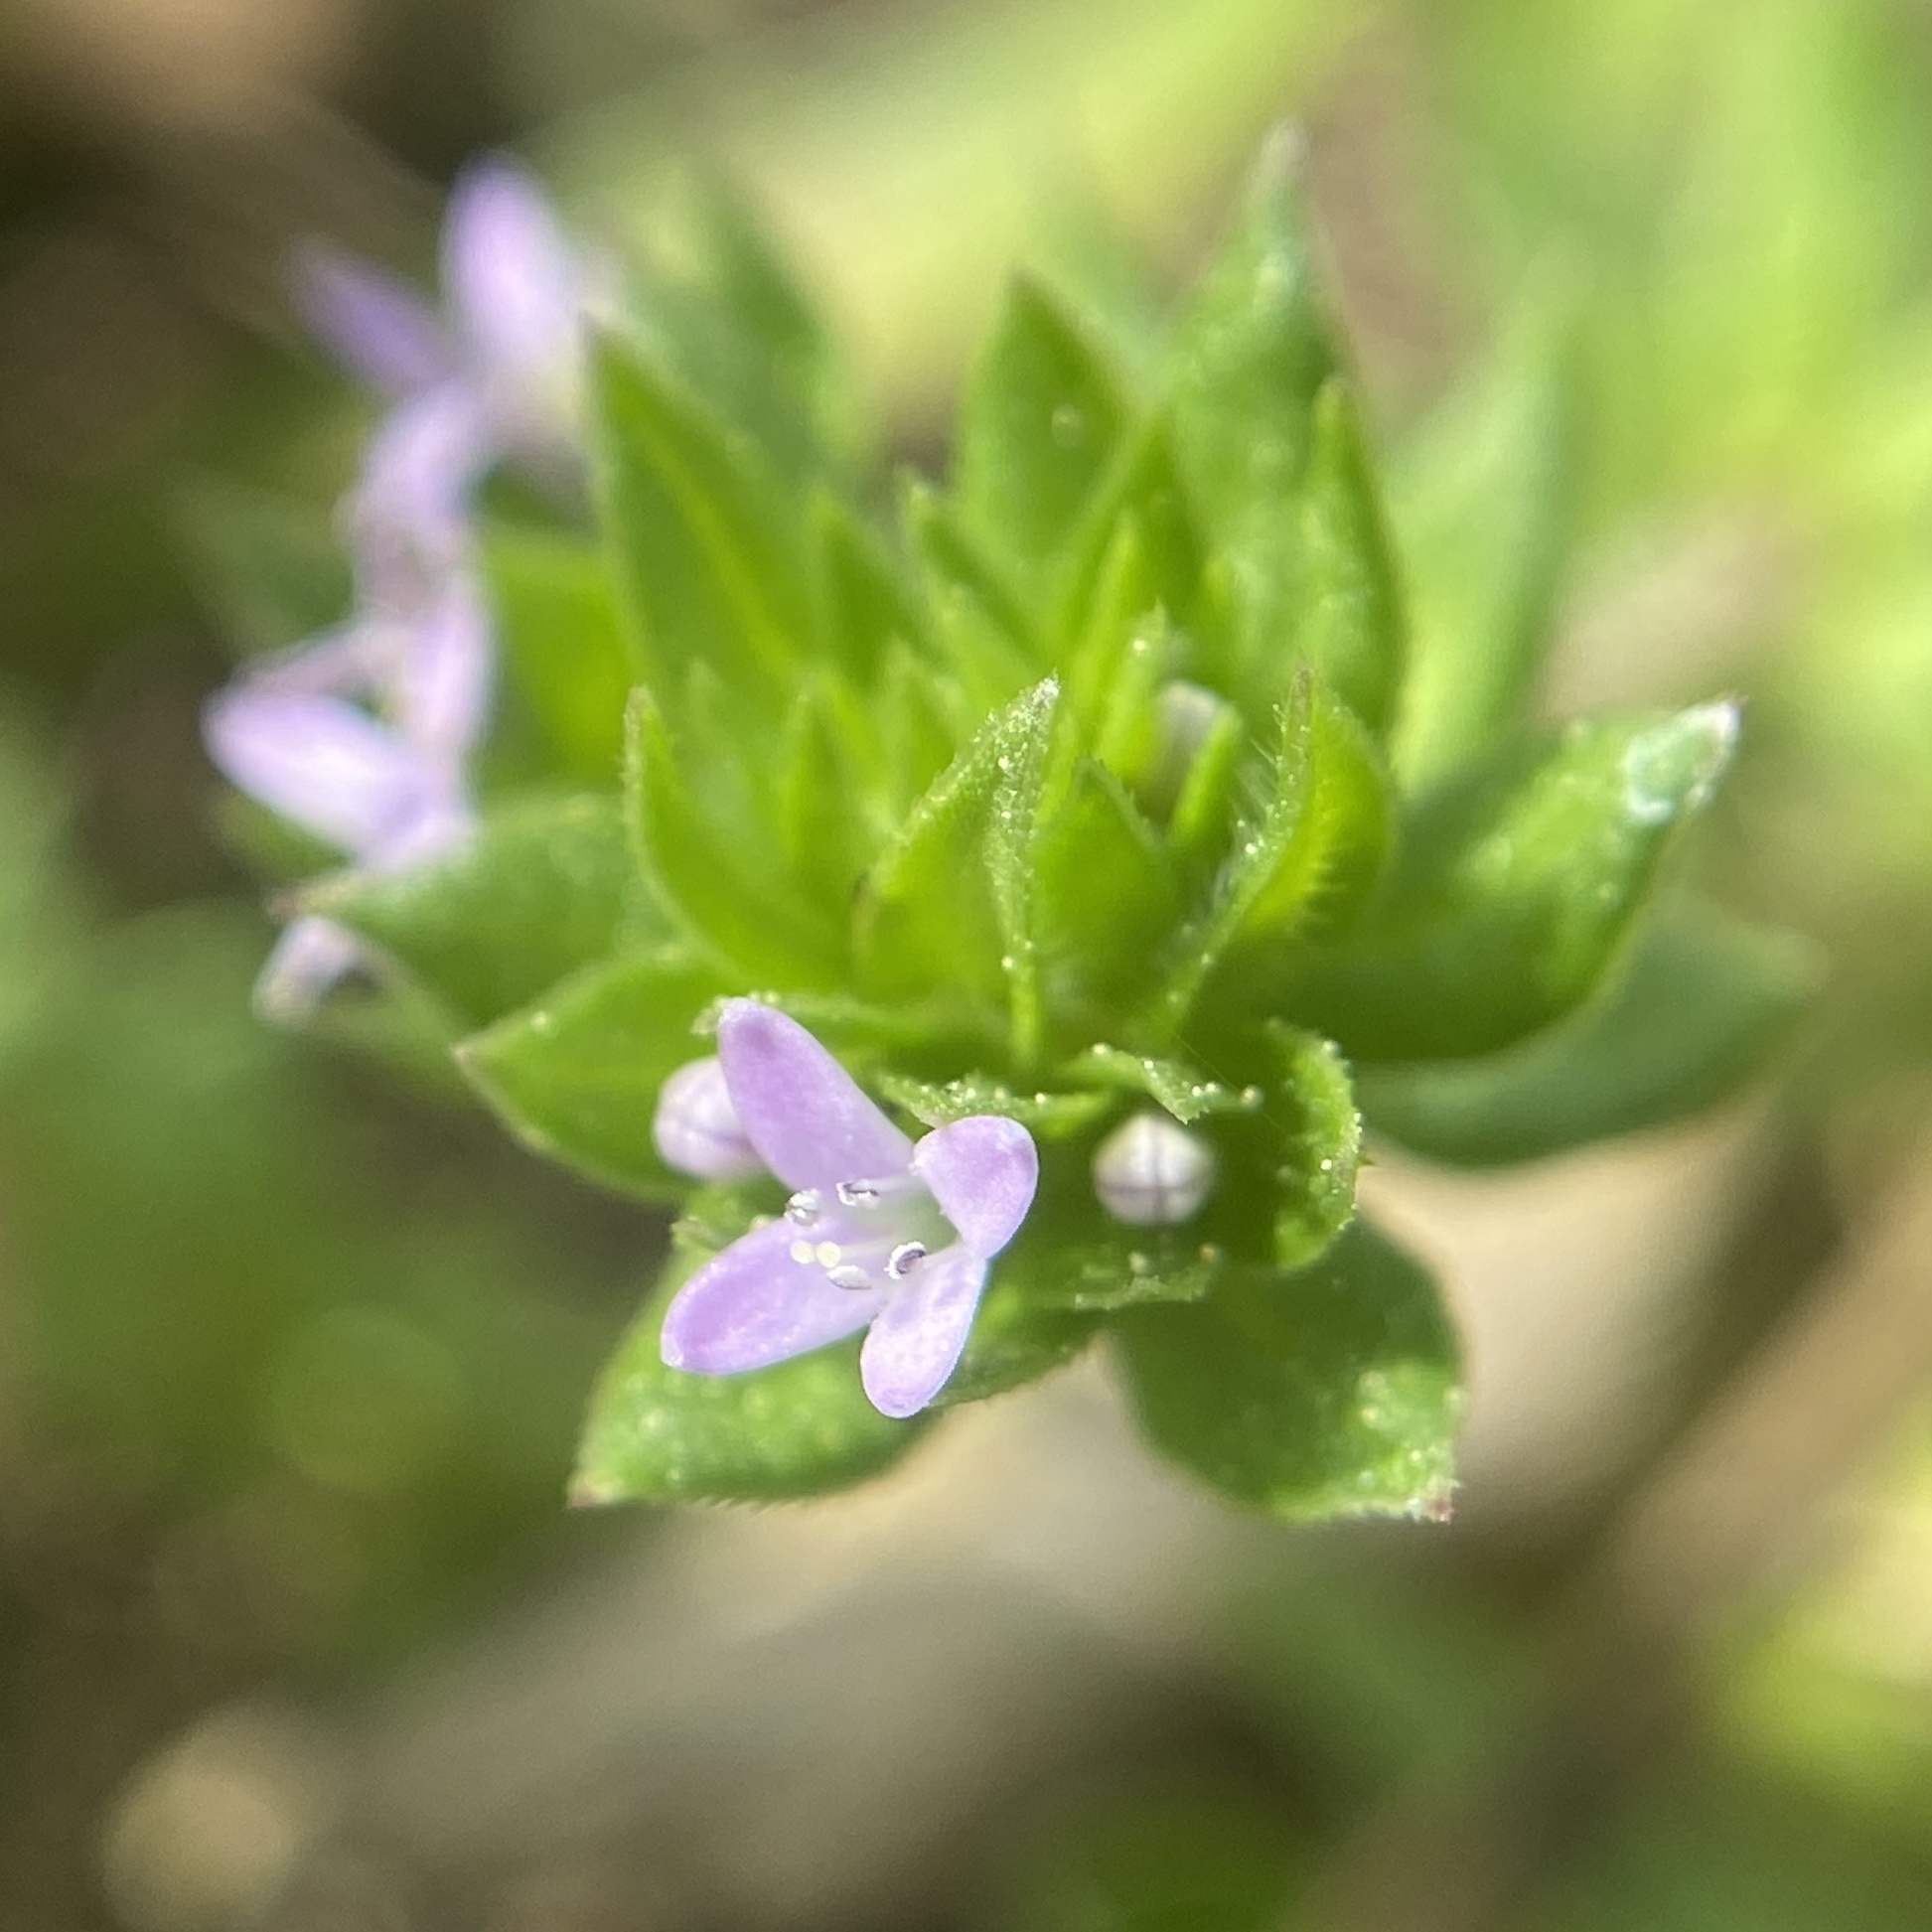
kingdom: Plantae
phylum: Tracheophyta
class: Magnoliopsida
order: Gentianales
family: Rubiaceae
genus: Sherardia
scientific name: Sherardia arvensis
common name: Field madder
